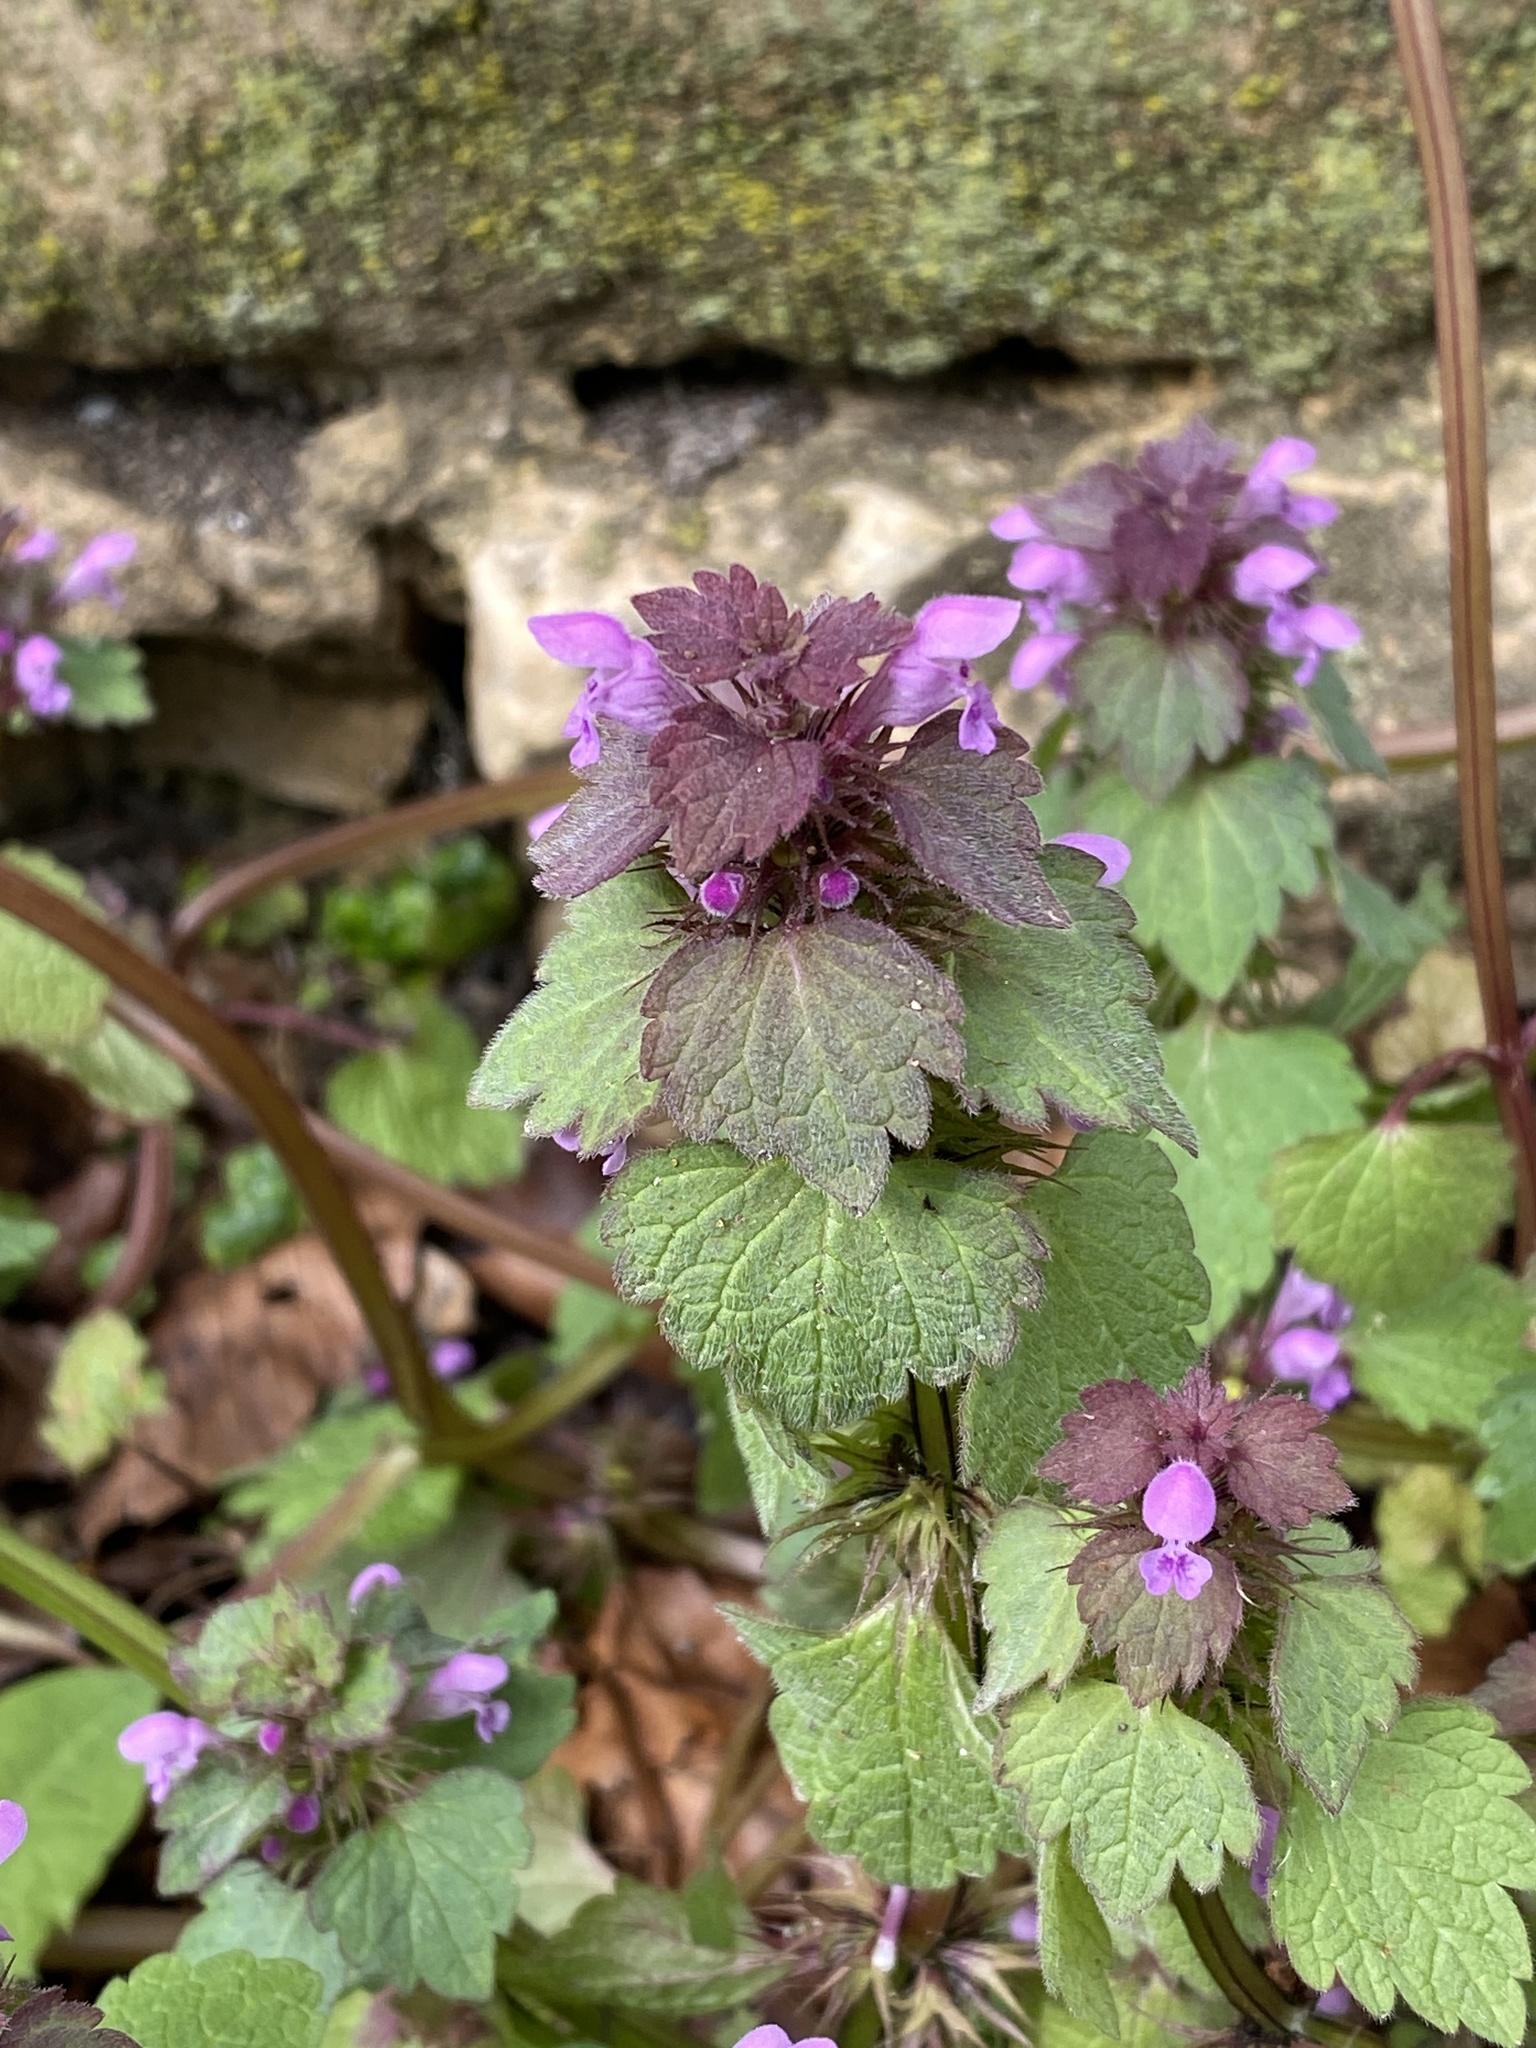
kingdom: Plantae
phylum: Tracheophyta
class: Magnoliopsida
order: Lamiales
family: Lamiaceae
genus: Lamium
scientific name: Lamium purpureum
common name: Red dead-nettle
